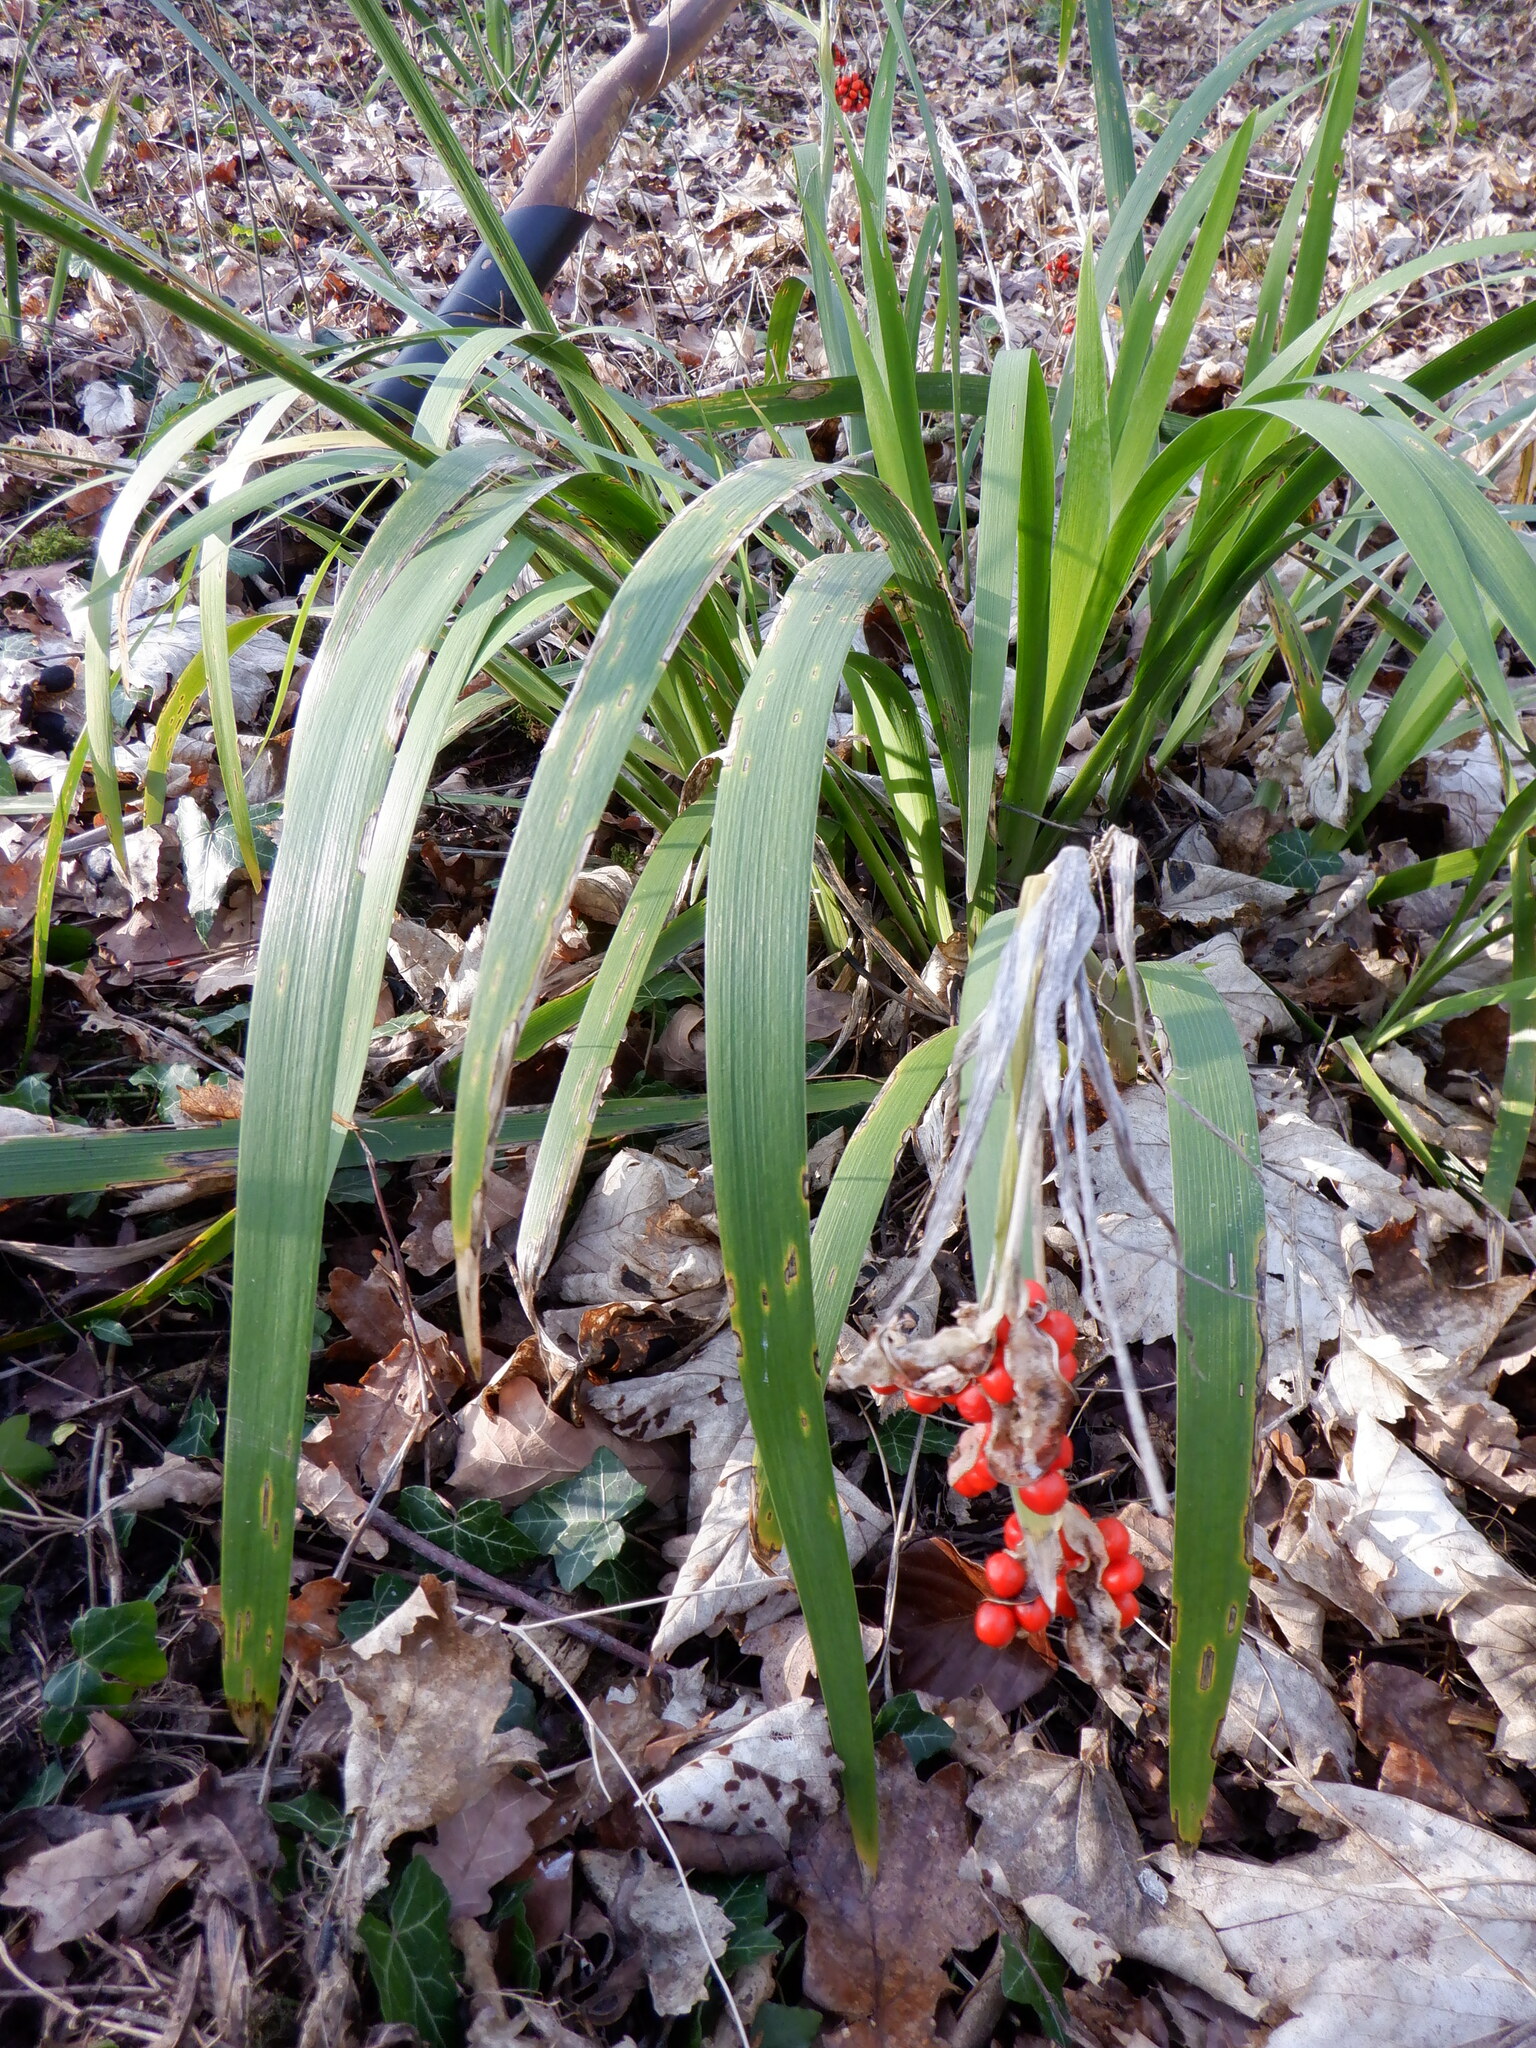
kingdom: Plantae
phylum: Tracheophyta
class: Liliopsida
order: Asparagales
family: Iridaceae
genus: Iris
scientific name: Iris foetidissima
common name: Stinking iris
